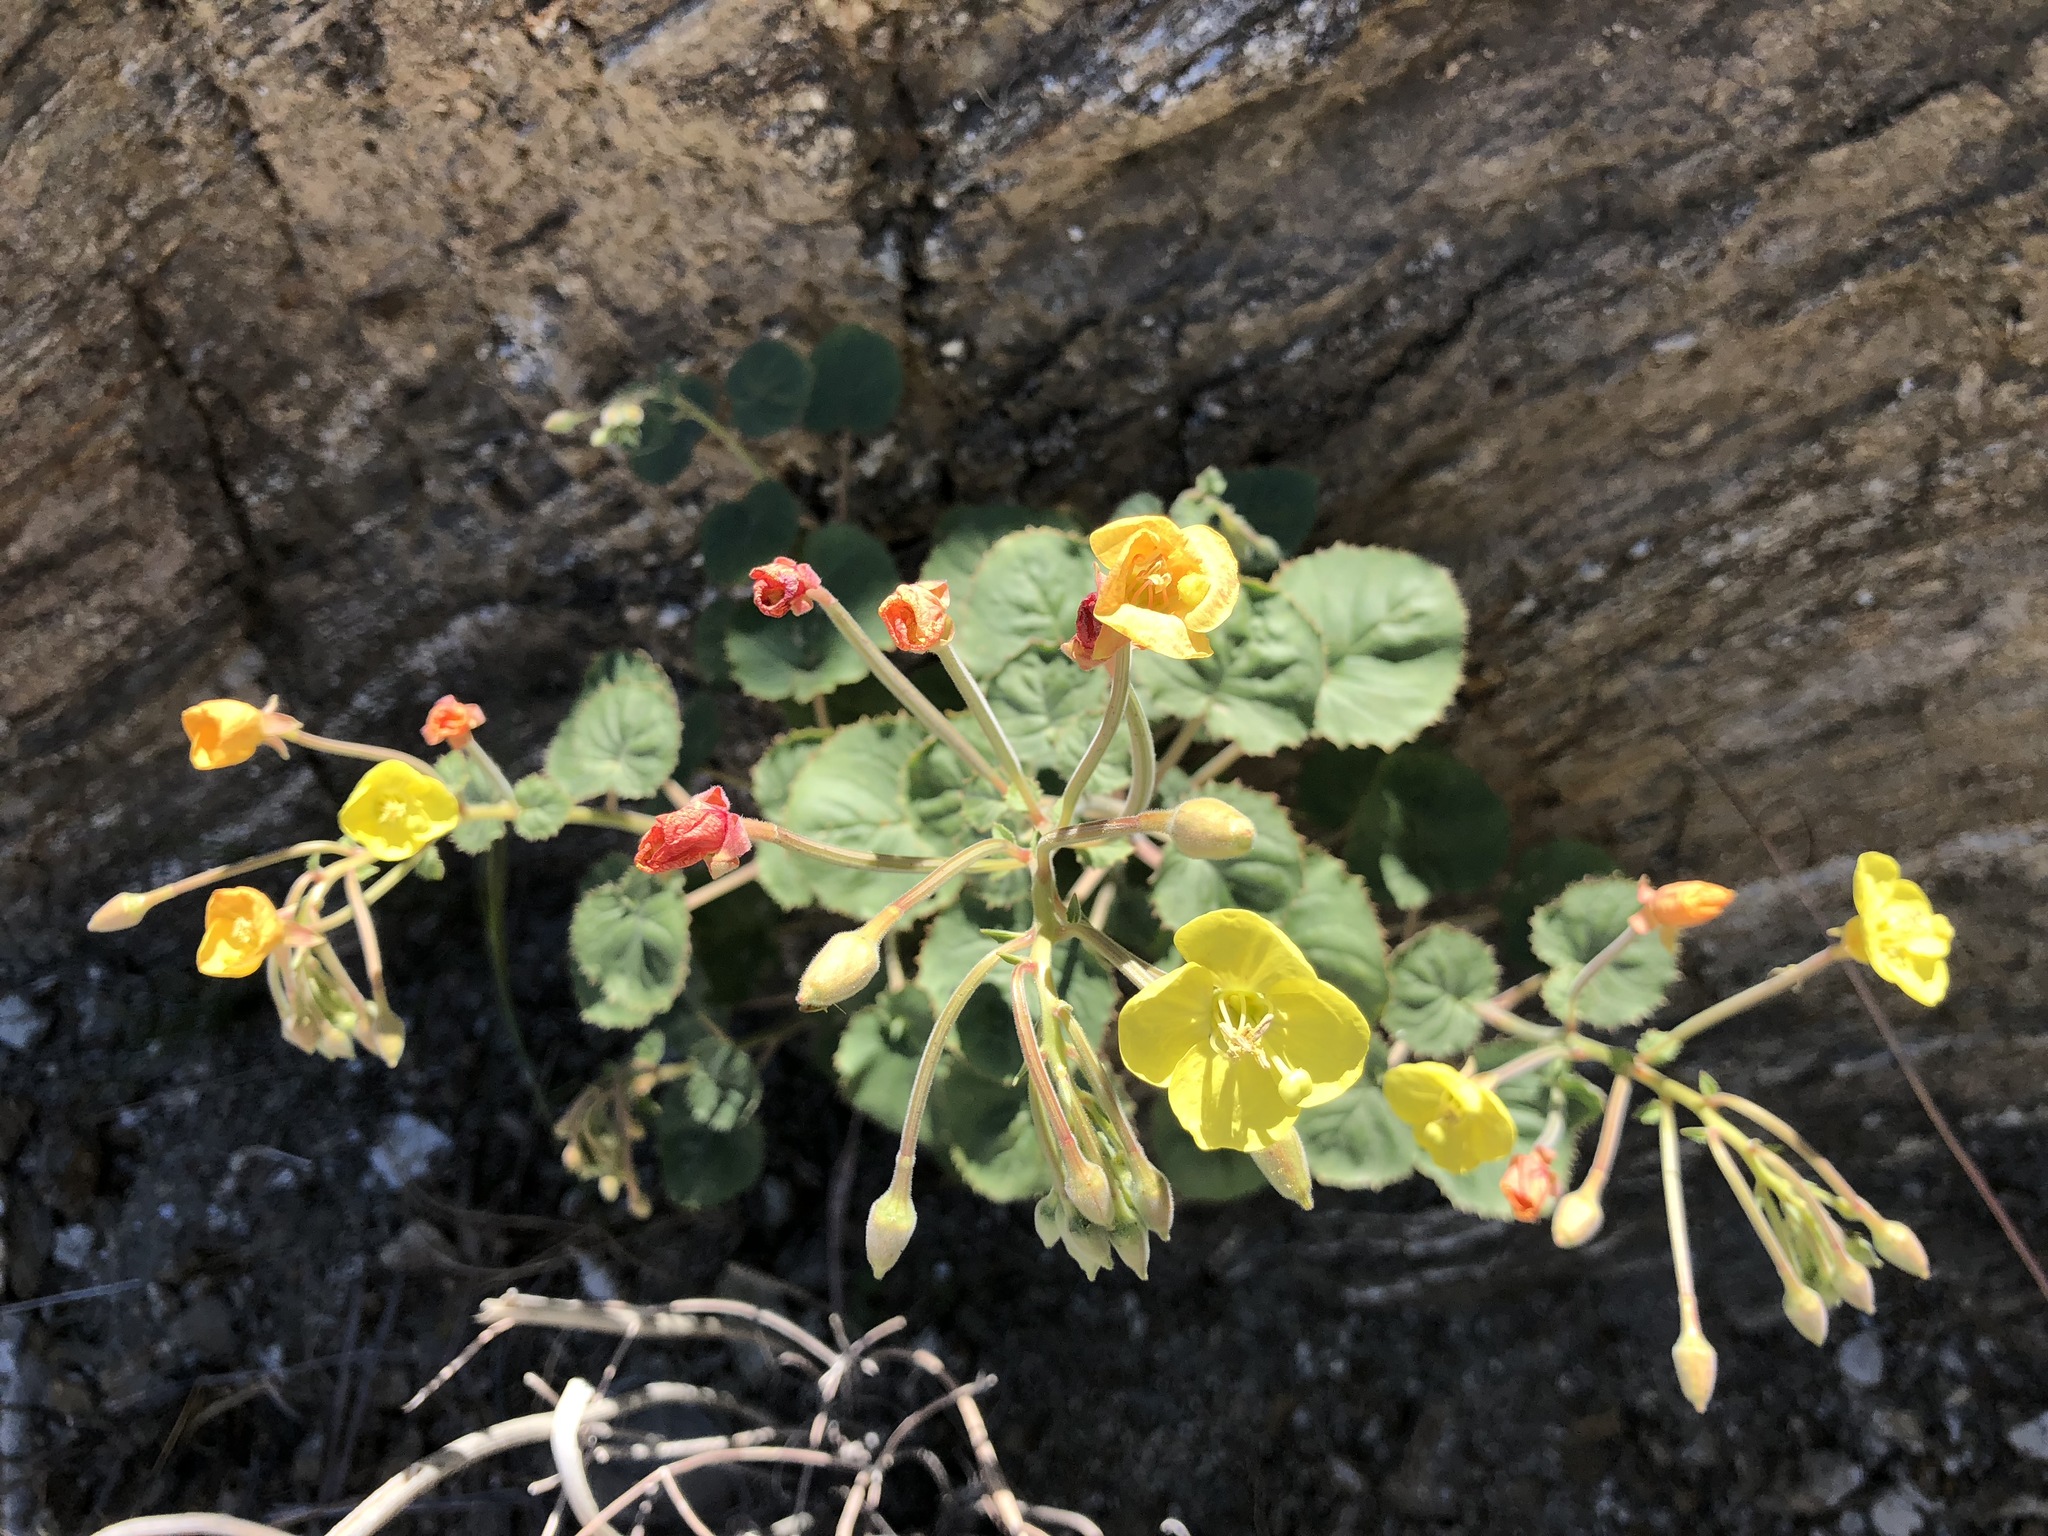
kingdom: Plantae
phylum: Tracheophyta
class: Magnoliopsida
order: Myrtales
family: Onagraceae
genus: Chylismia
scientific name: Chylismia cardiophylla
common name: Heartleaf suncup
